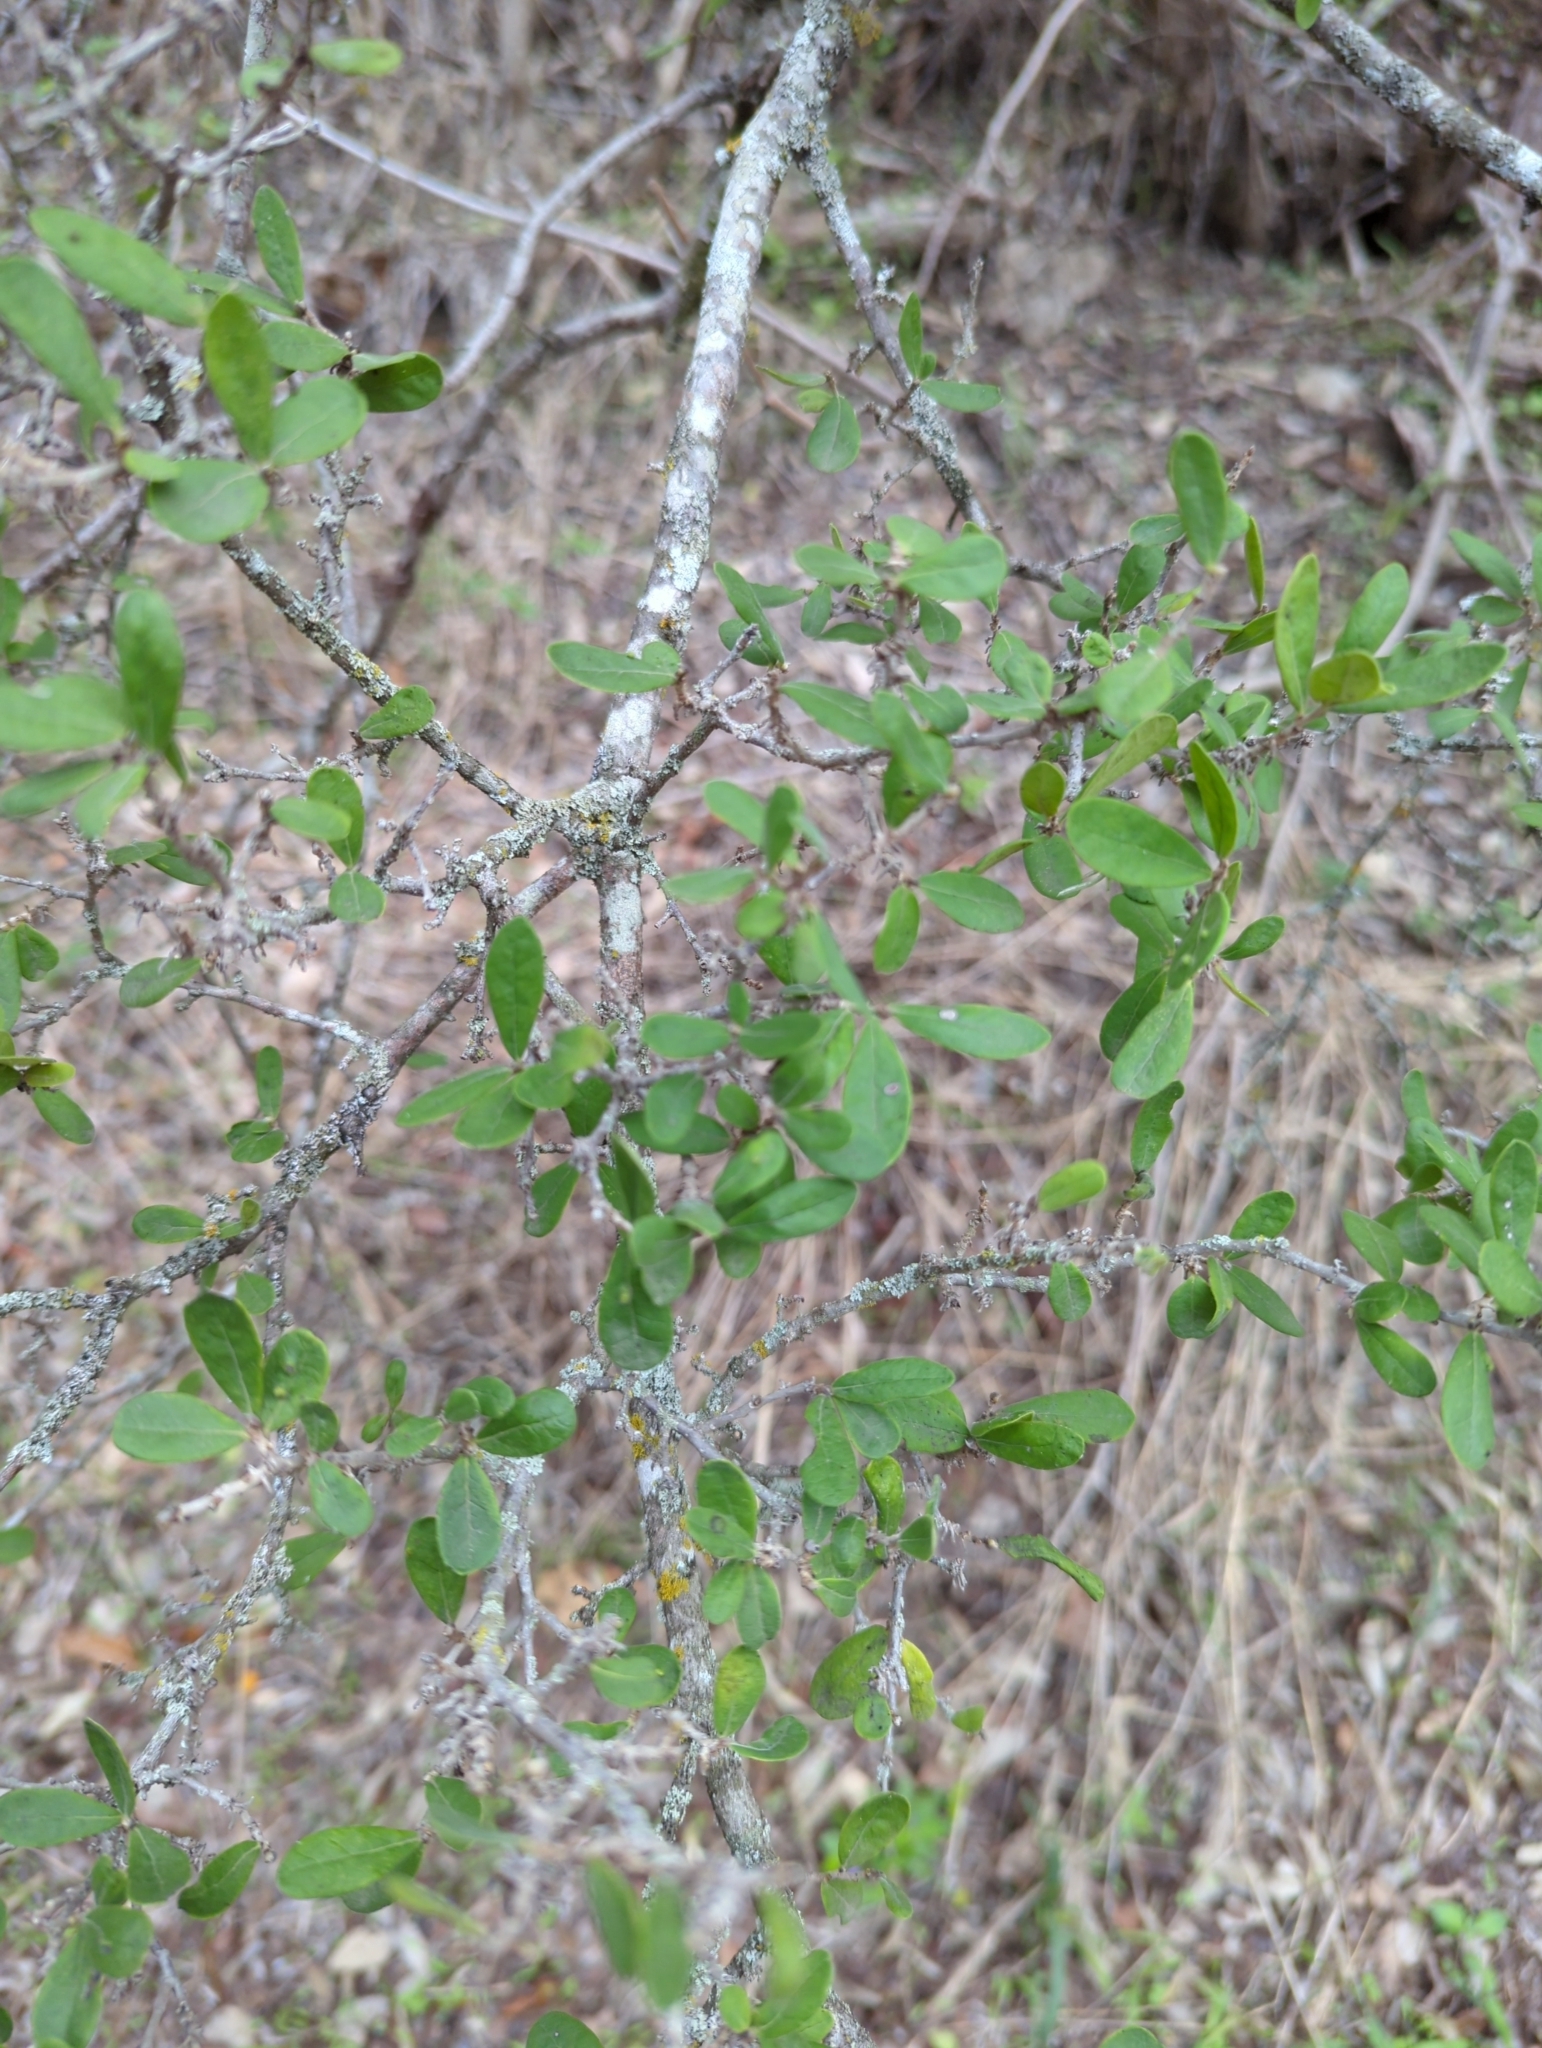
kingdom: Plantae
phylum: Tracheophyta
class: Magnoliopsida
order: Ericales
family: Ebenaceae
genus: Diospyros
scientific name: Diospyros texana
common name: Texas persimmon
